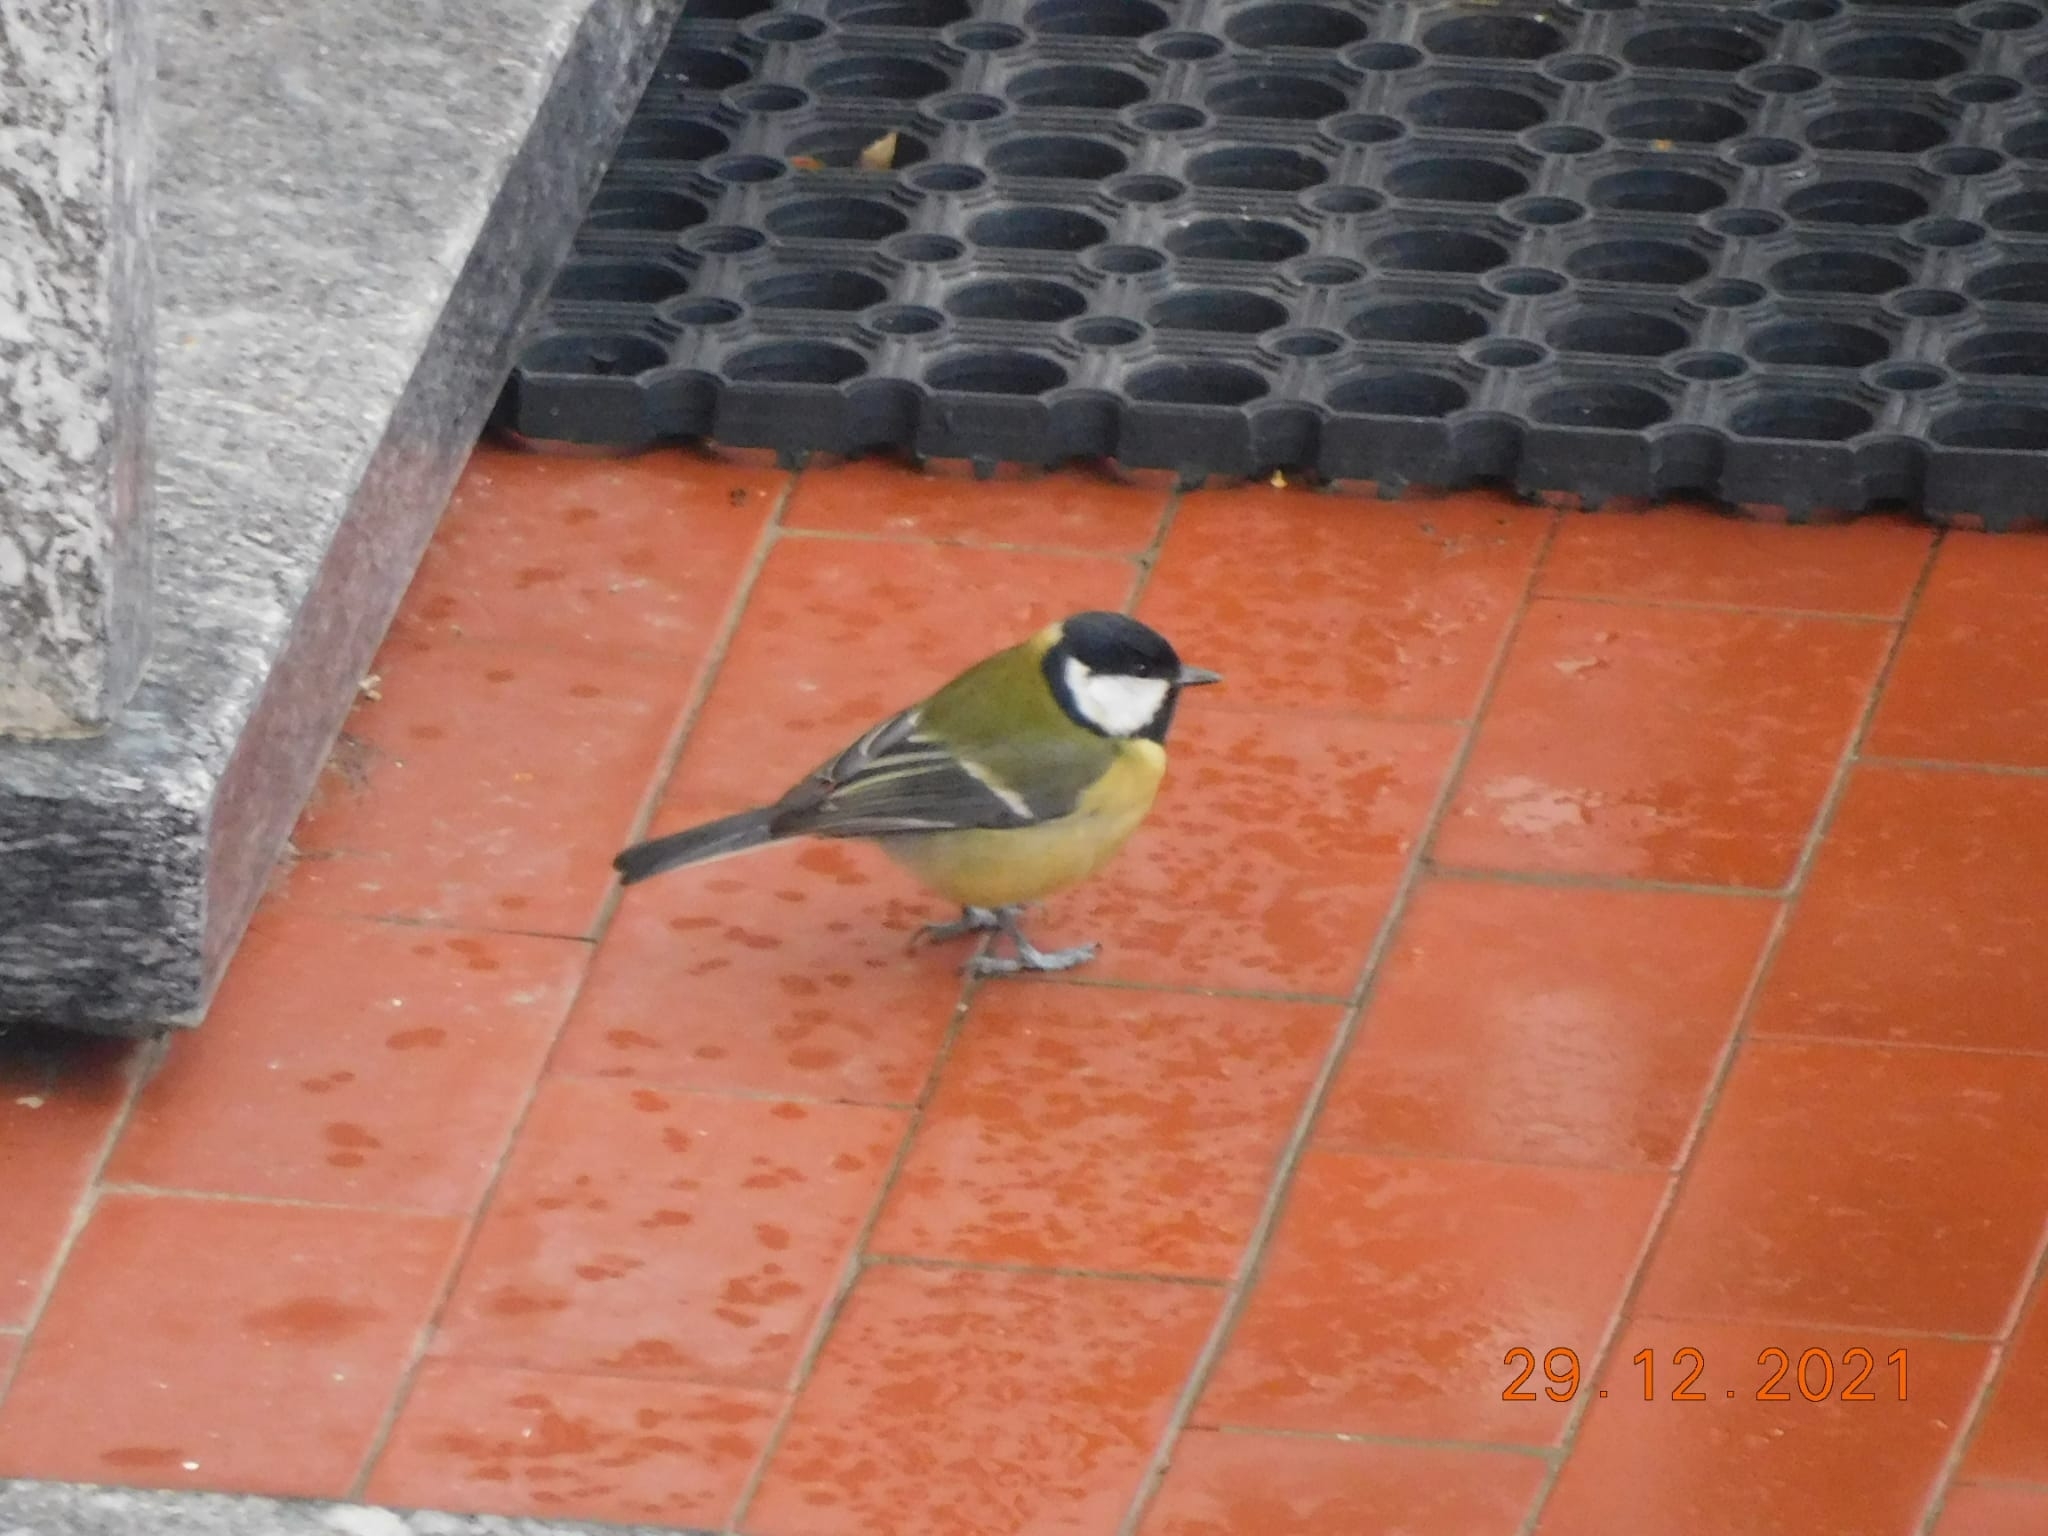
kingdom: Animalia
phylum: Chordata
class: Aves
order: Passeriformes
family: Paridae
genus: Parus
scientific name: Parus major
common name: Great tit
